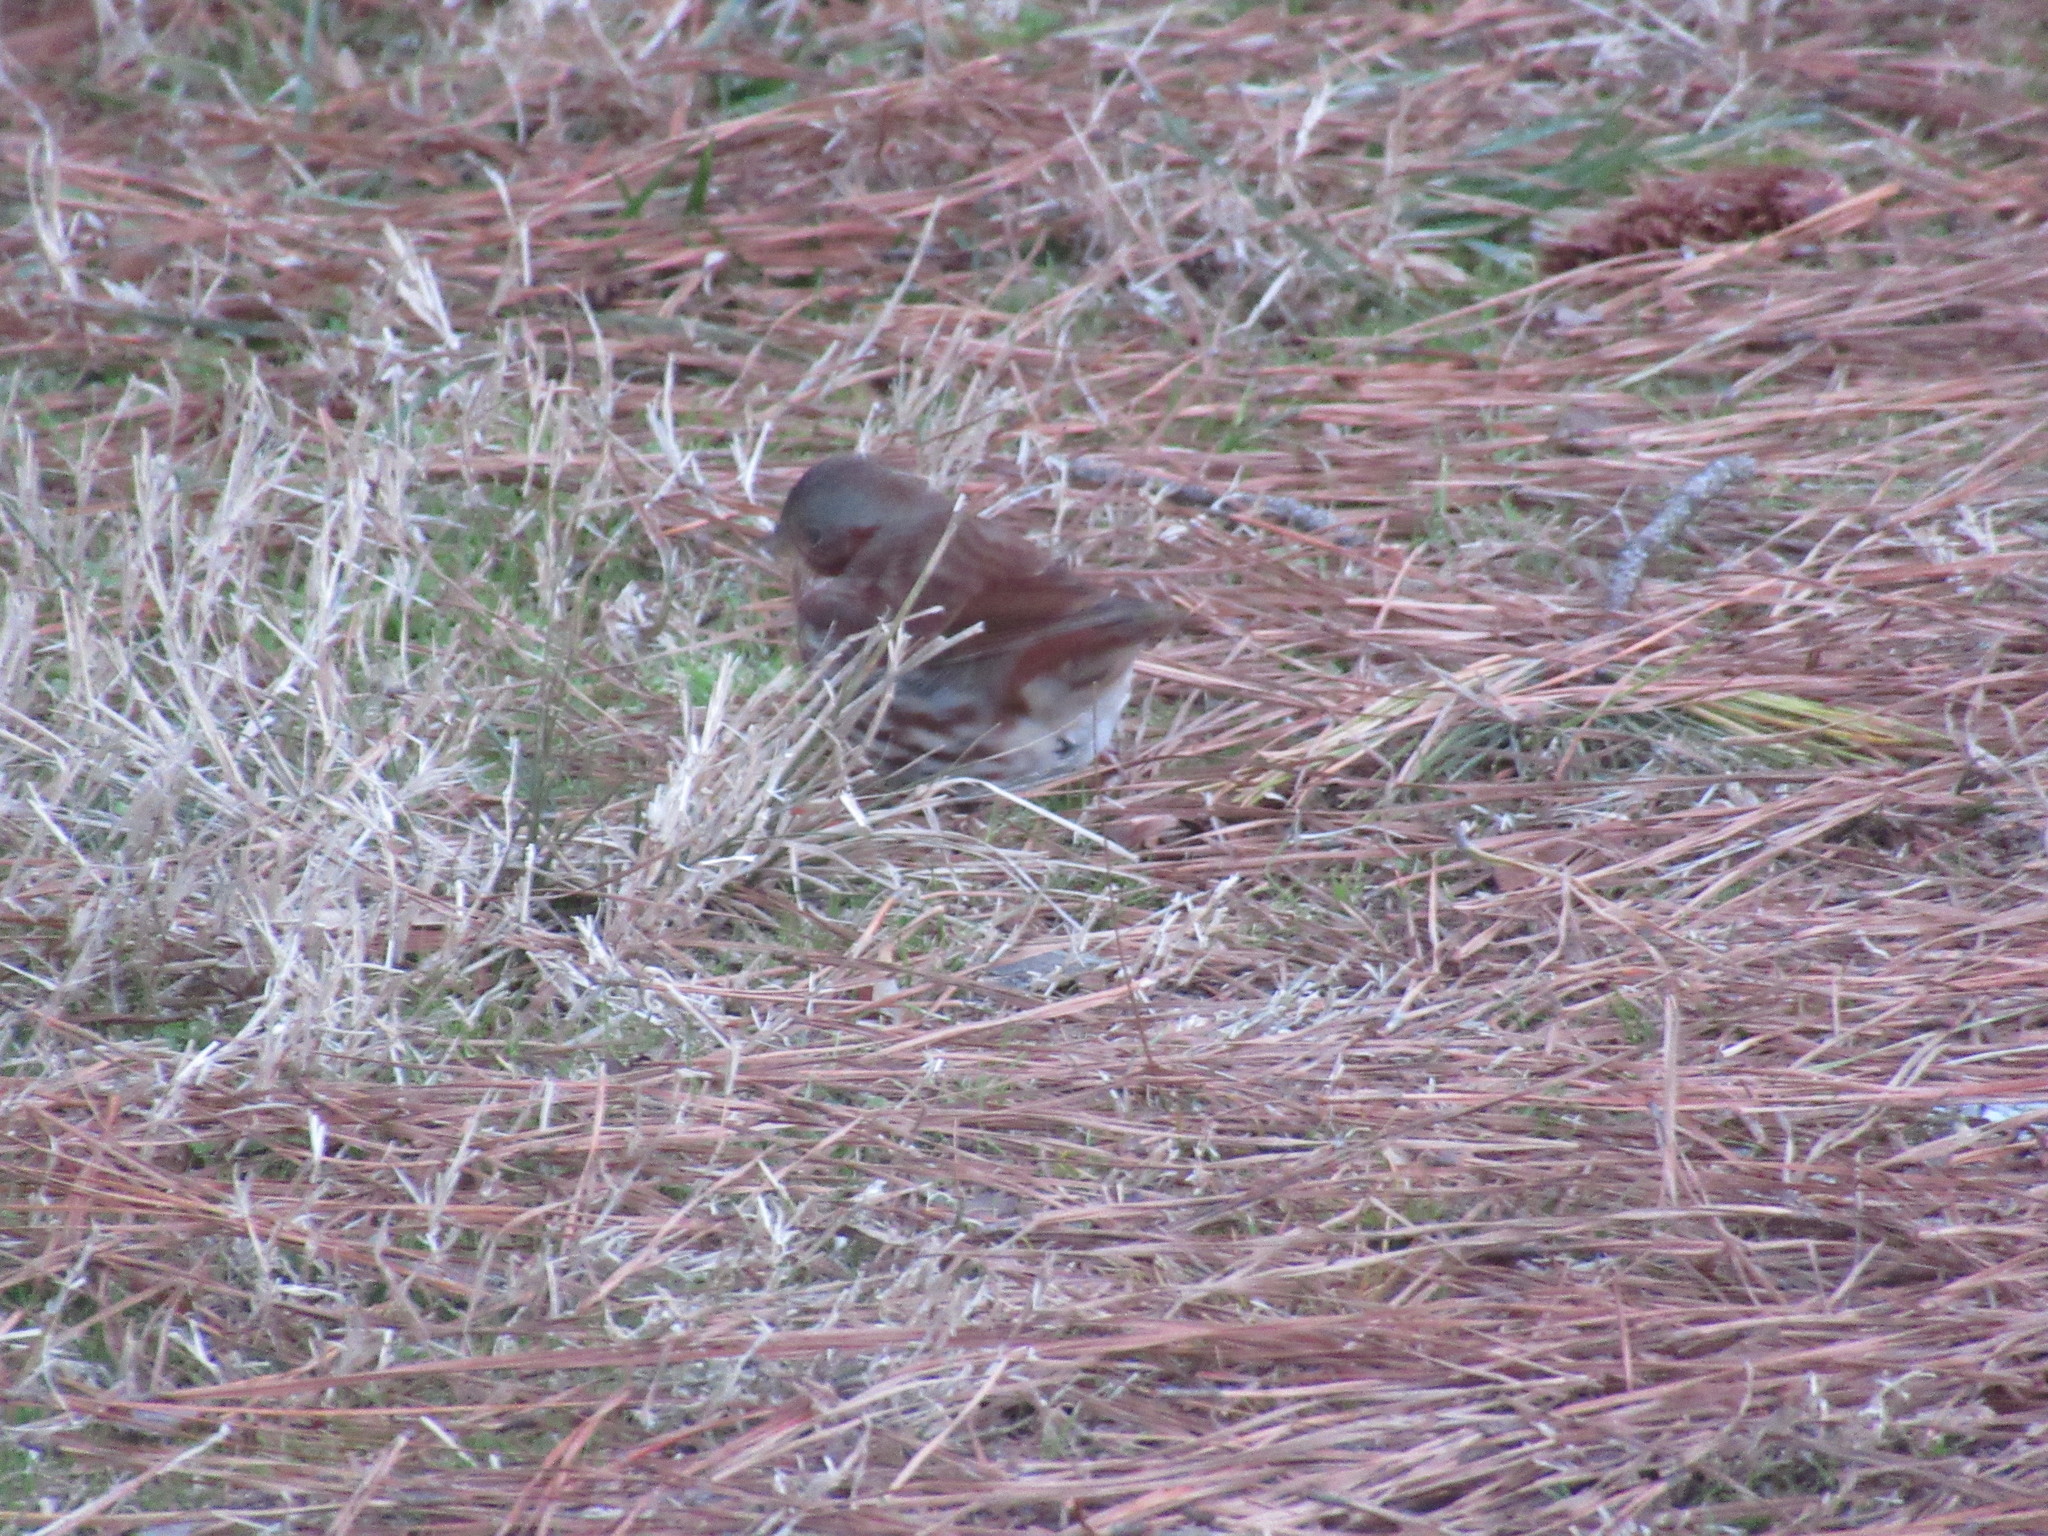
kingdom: Animalia
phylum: Chordata
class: Aves
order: Passeriformes
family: Passerellidae
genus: Passerella
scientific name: Passerella iliaca
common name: Fox sparrow
